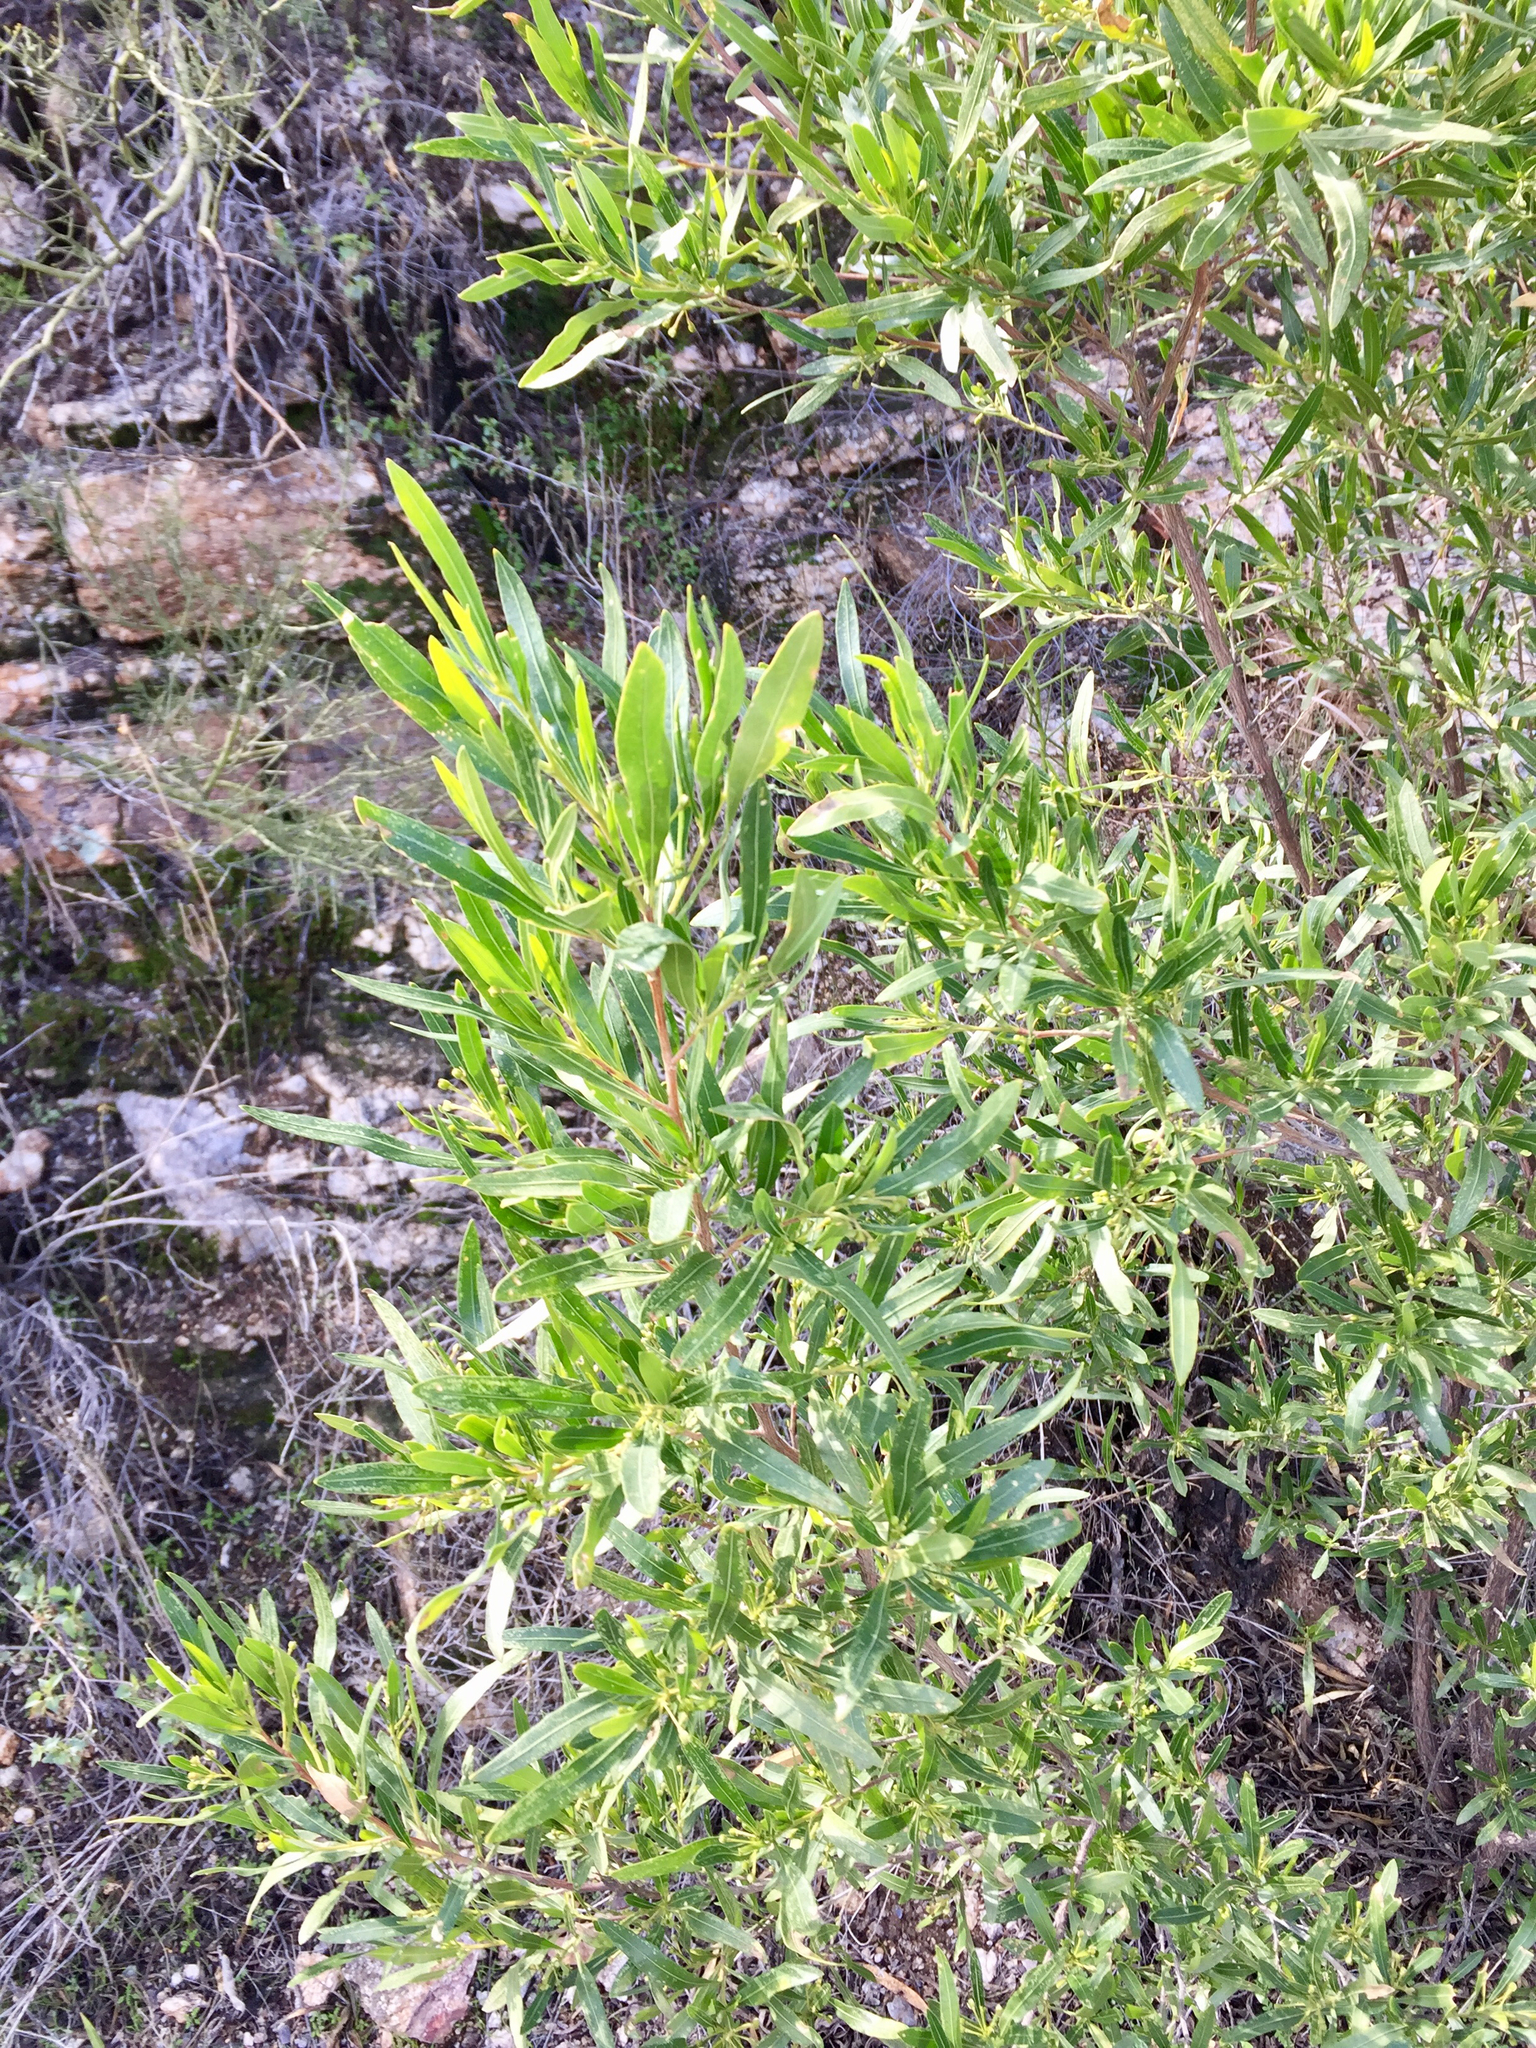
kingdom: Plantae
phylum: Tracheophyta
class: Magnoliopsida
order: Sapindales
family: Sapindaceae
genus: Dodonaea
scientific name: Dodonaea viscosa
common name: Hopbush
